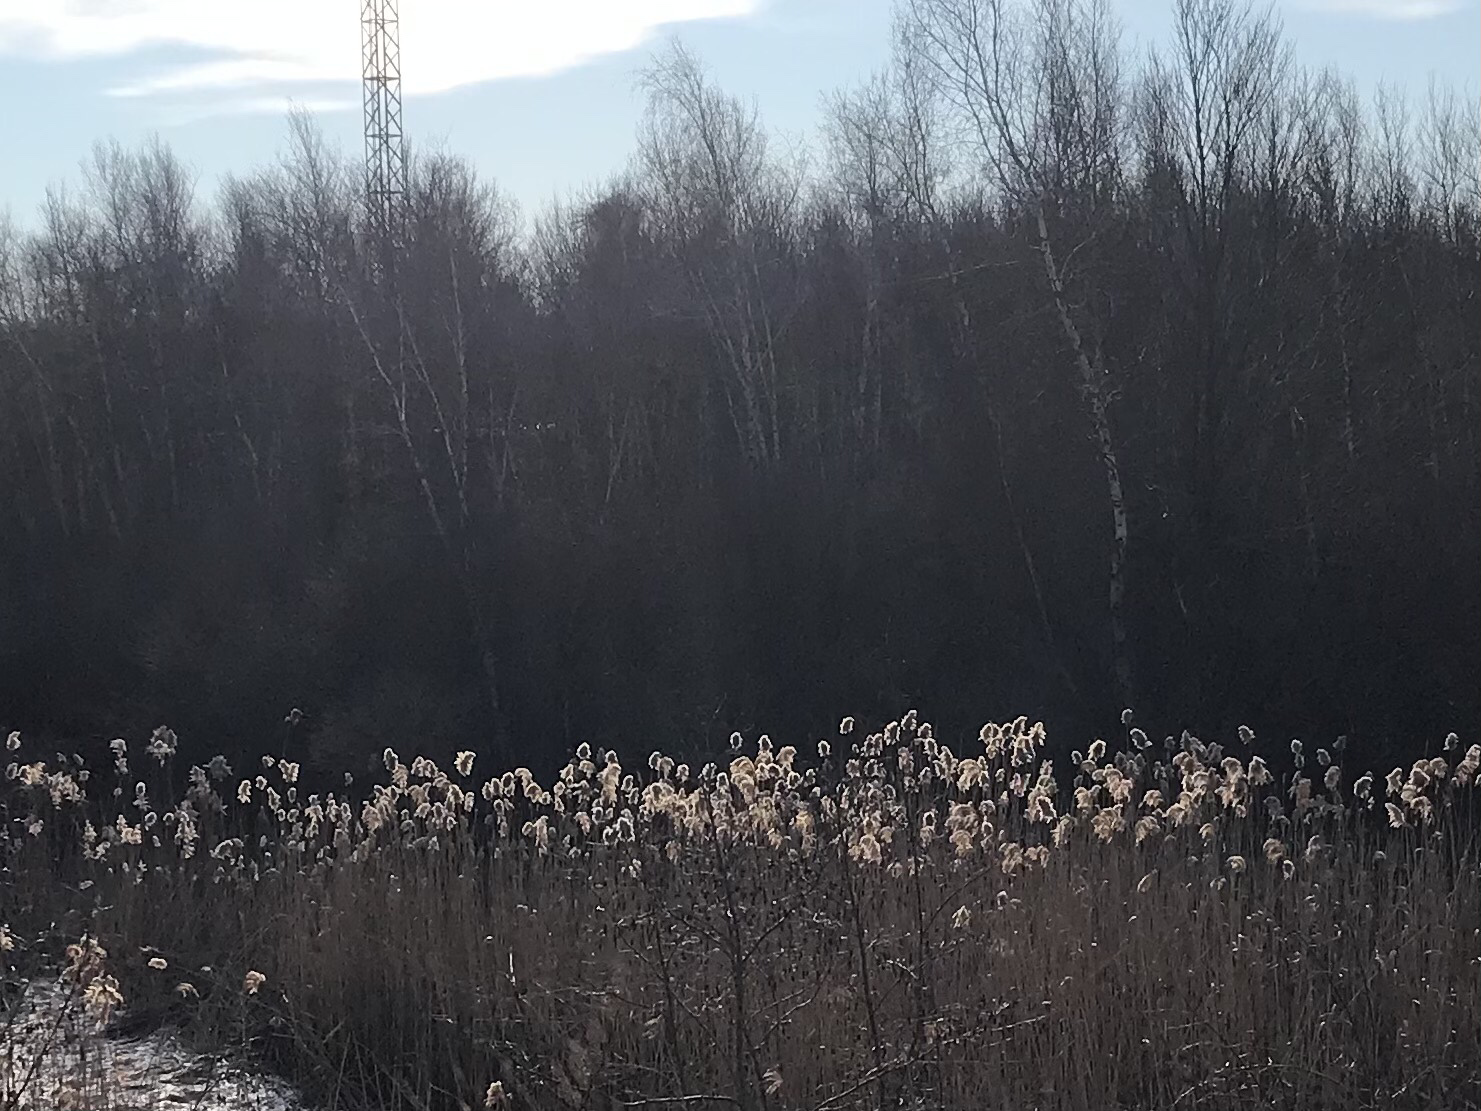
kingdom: Plantae
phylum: Tracheophyta
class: Liliopsida
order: Poales
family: Poaceae
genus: Phragmites
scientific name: Phragmites australis
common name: Common reed
